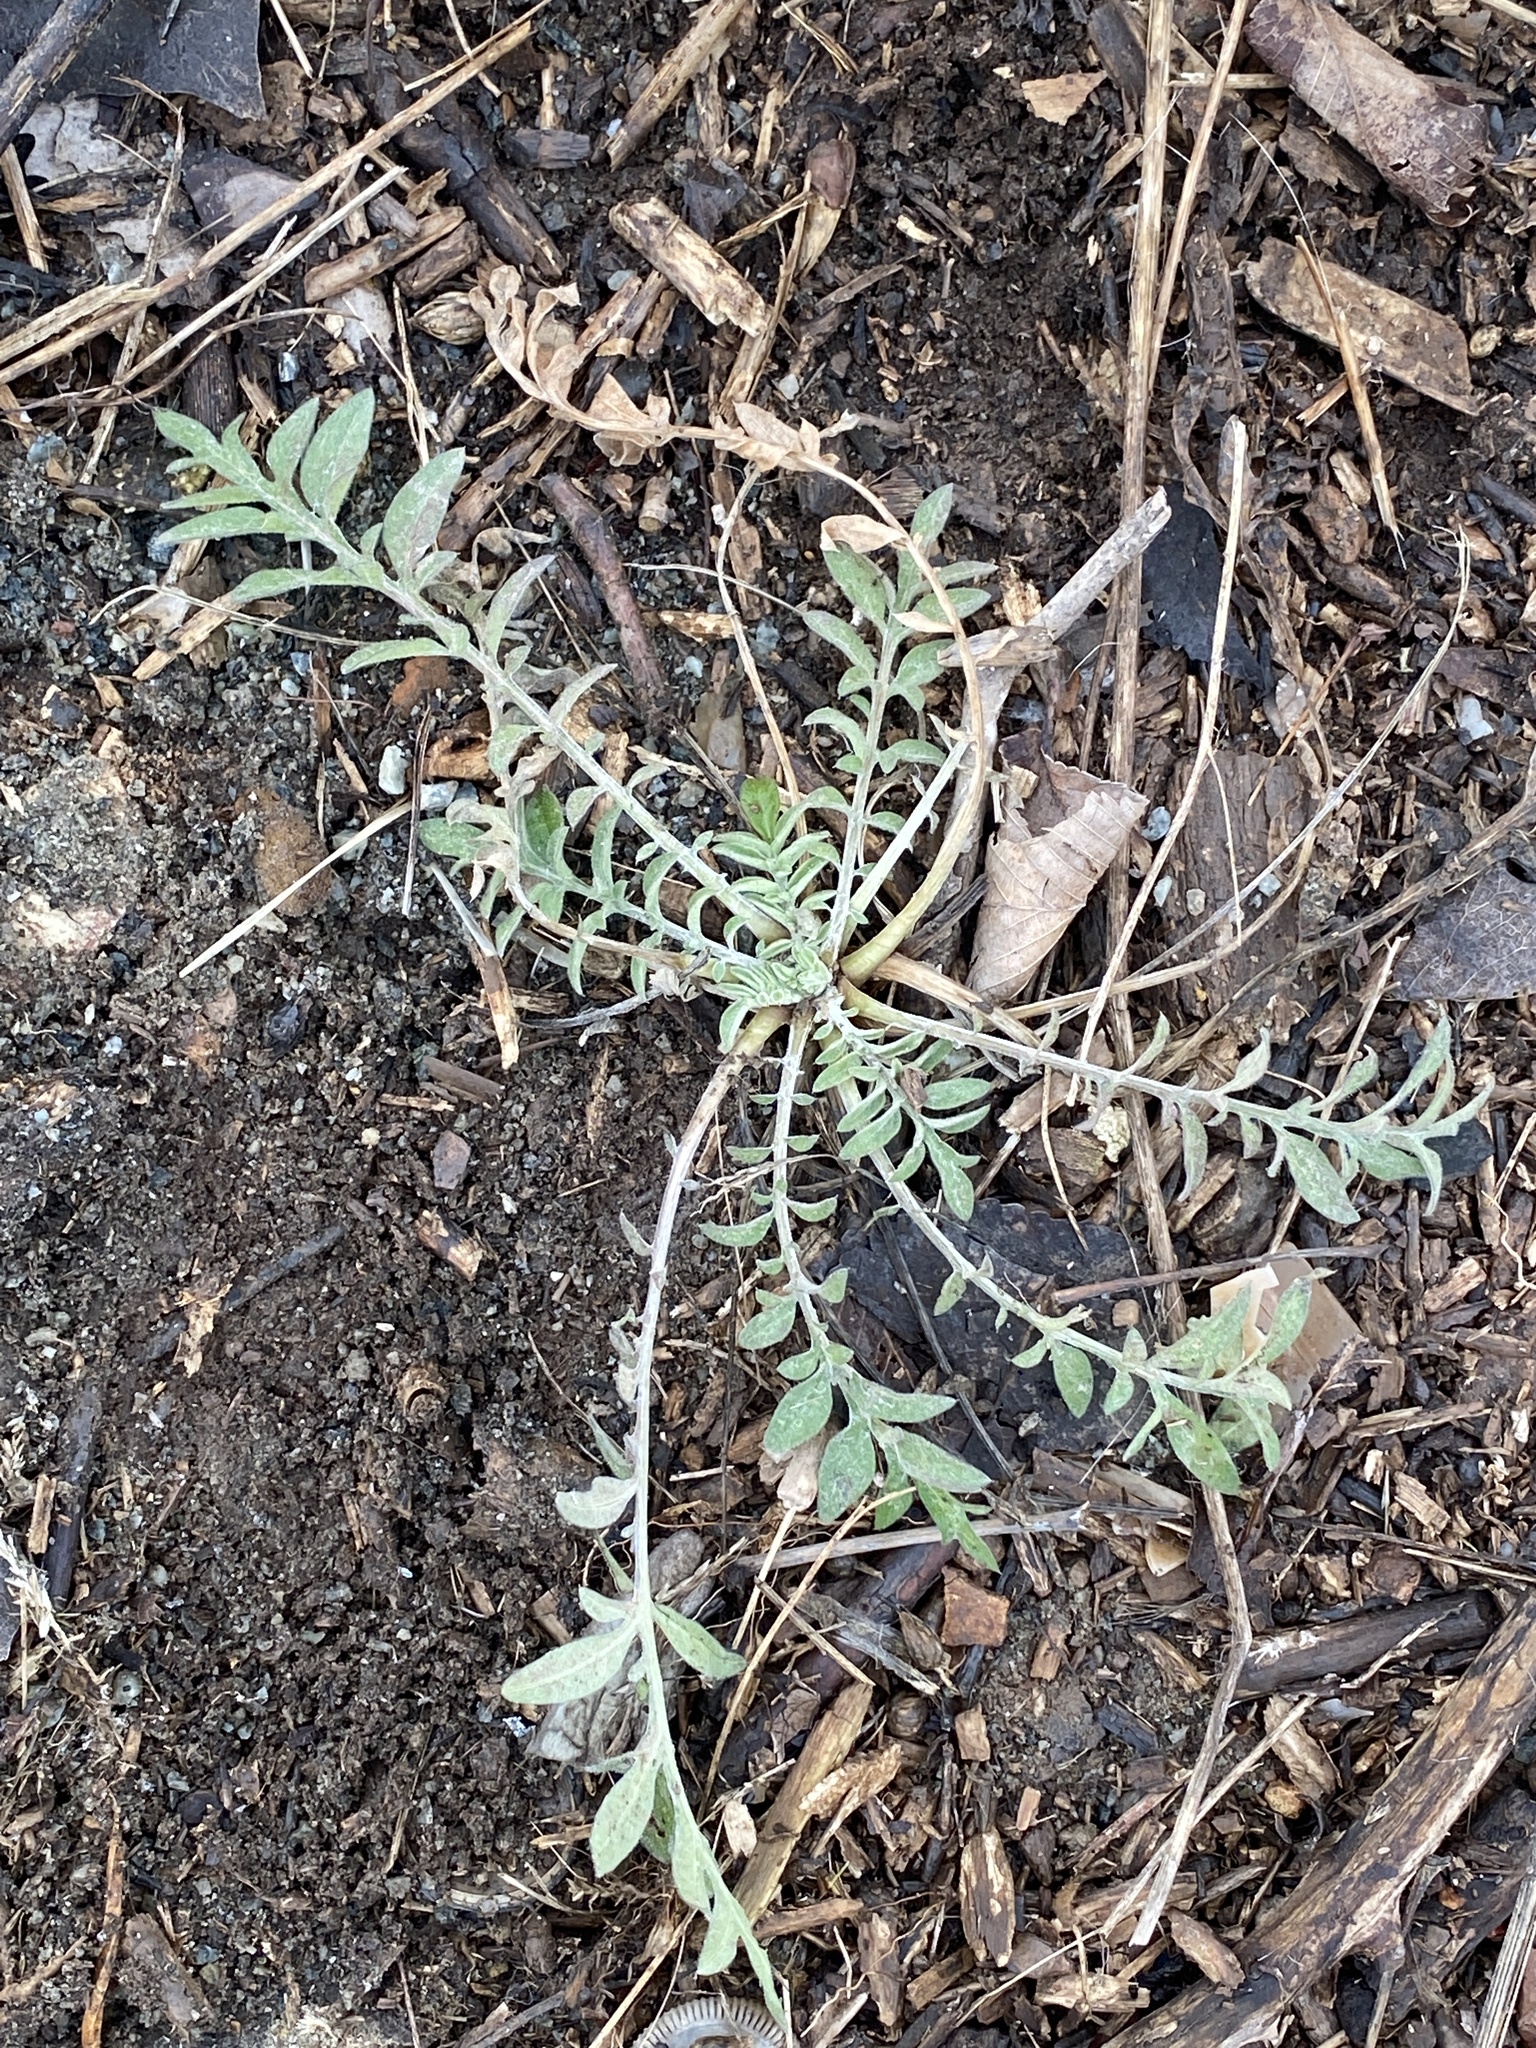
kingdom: Plantae
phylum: Tracheophyta
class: Magnoliopsida
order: Asterales
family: Asteraceae
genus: Centaurea
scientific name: Centaurea stoebe
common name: Spotted knapweed
